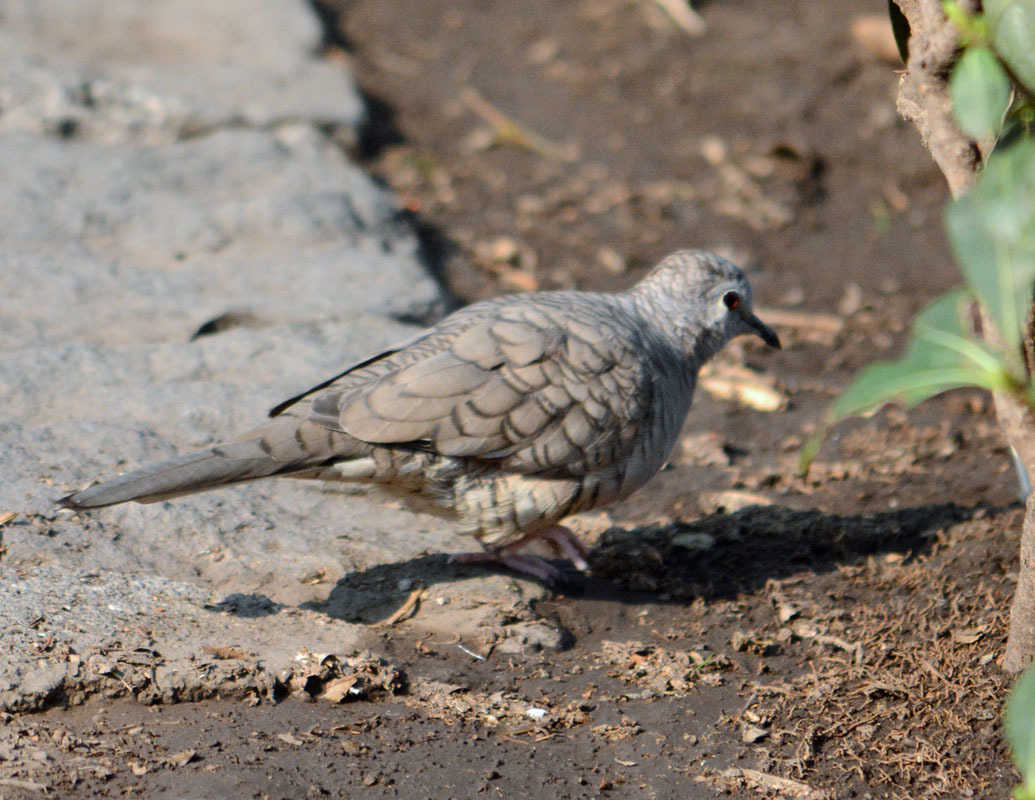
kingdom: Animalia
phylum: Chordata
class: Aves
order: Columbiformes
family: Columbidae
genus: Columbina
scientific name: Columbina inca
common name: Inca dove
